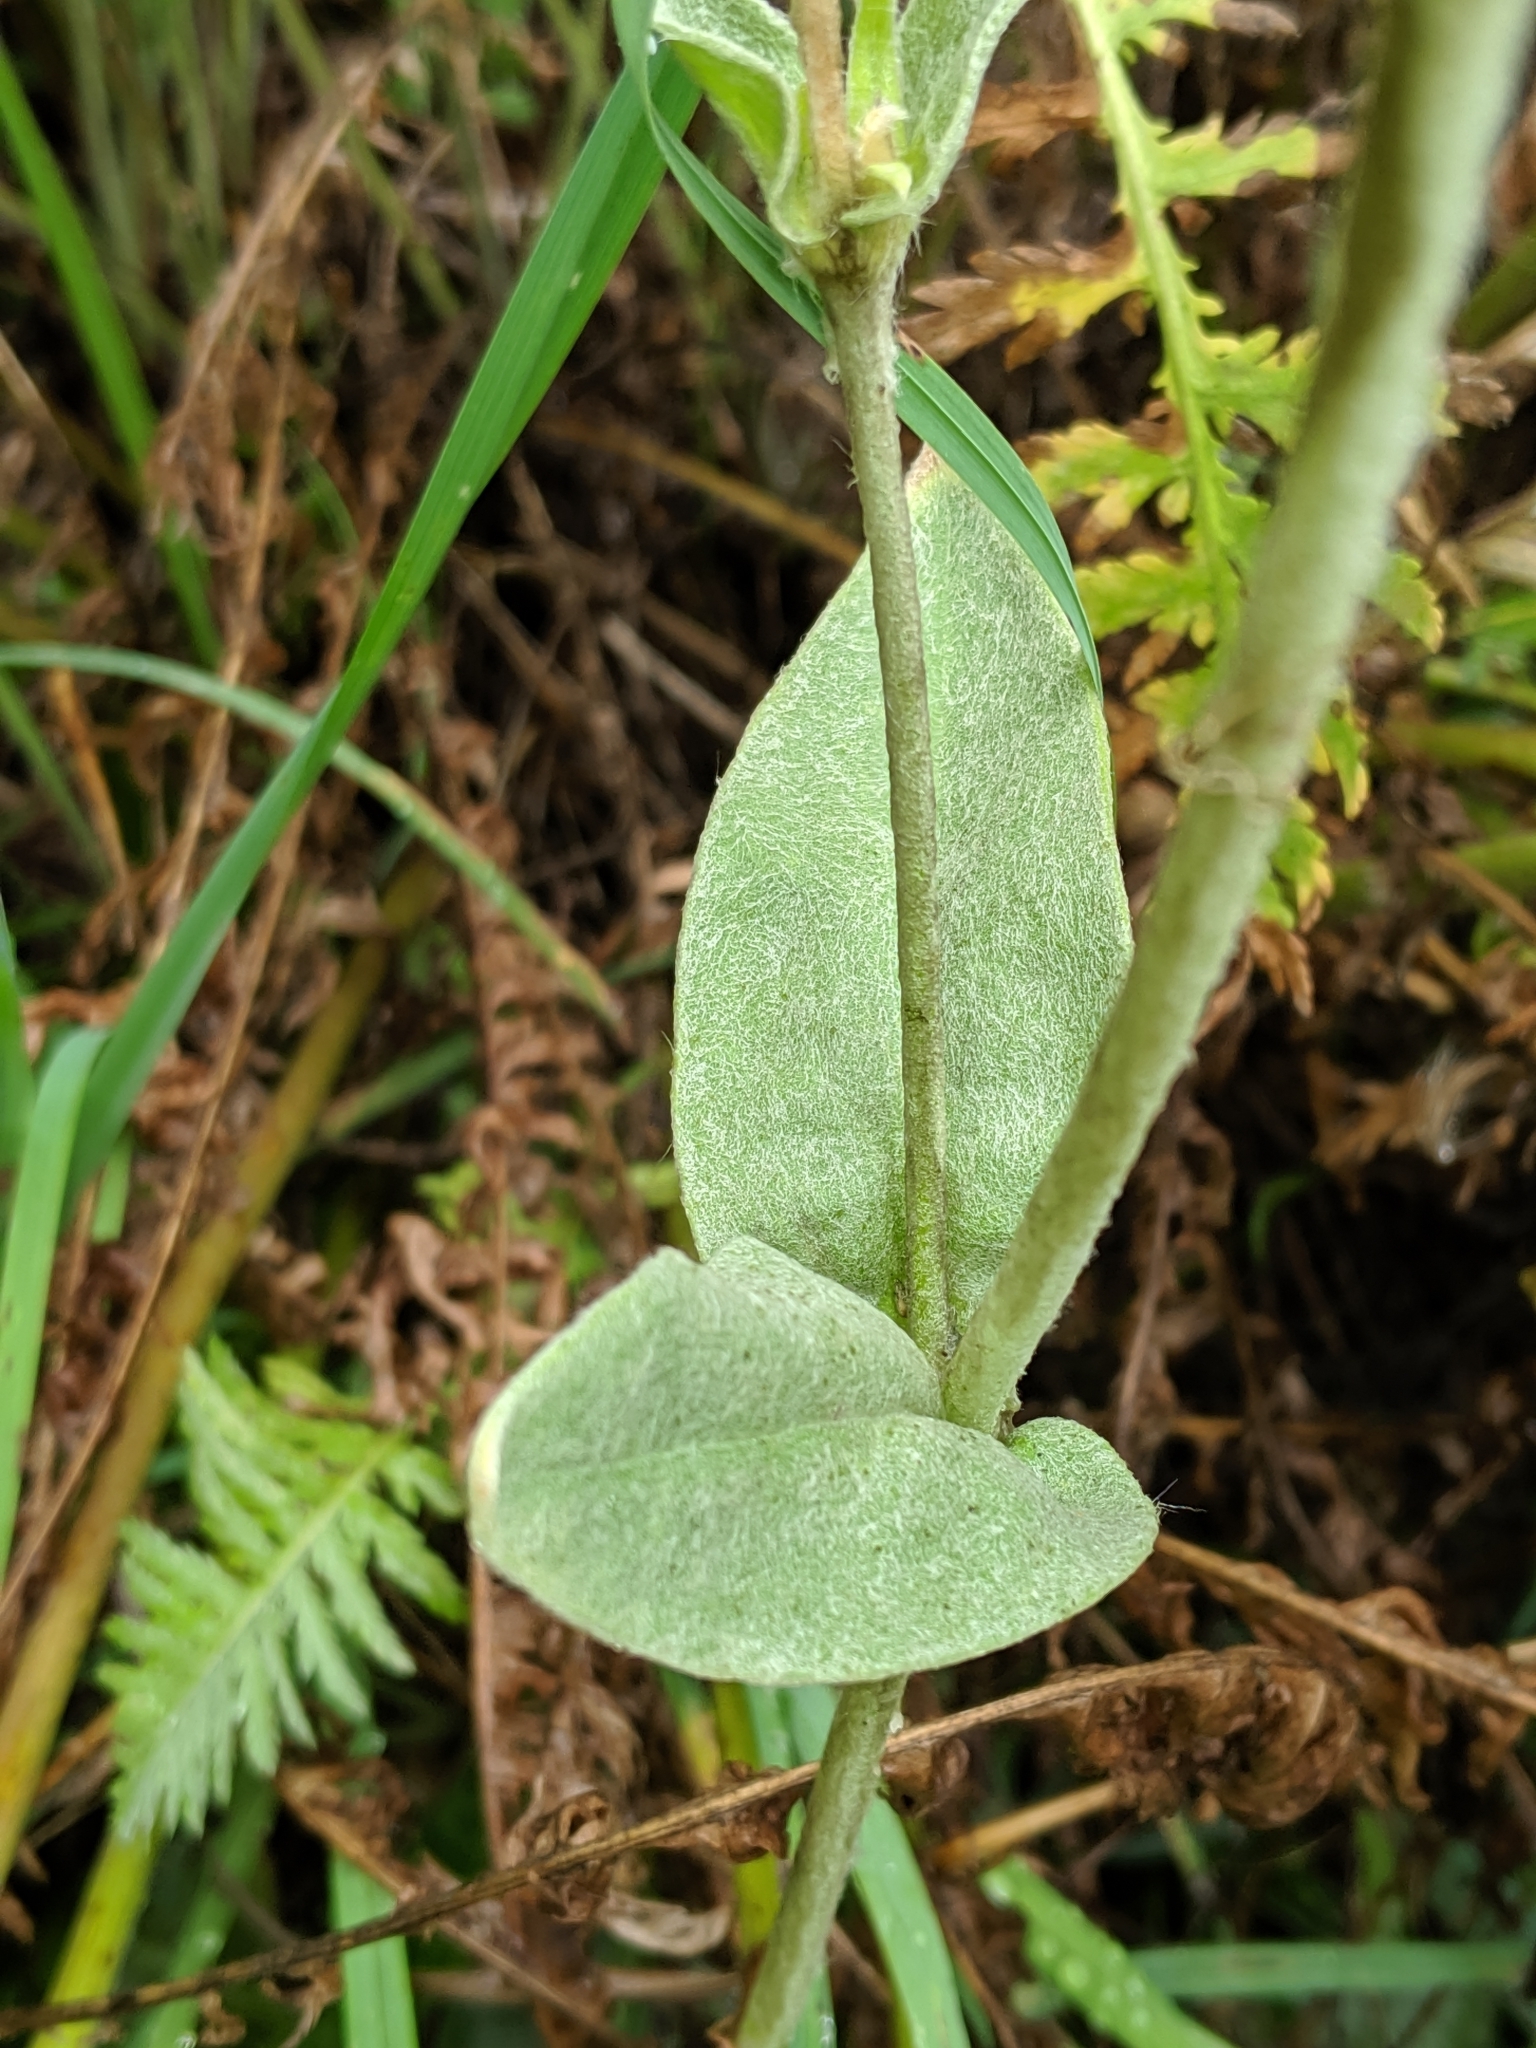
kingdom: Plantae
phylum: Tracheophyta
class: Magnoliopsida
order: Caryophyllales
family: Caryophyllaceae
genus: Silene
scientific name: Silene coronaria
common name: Rose campion
